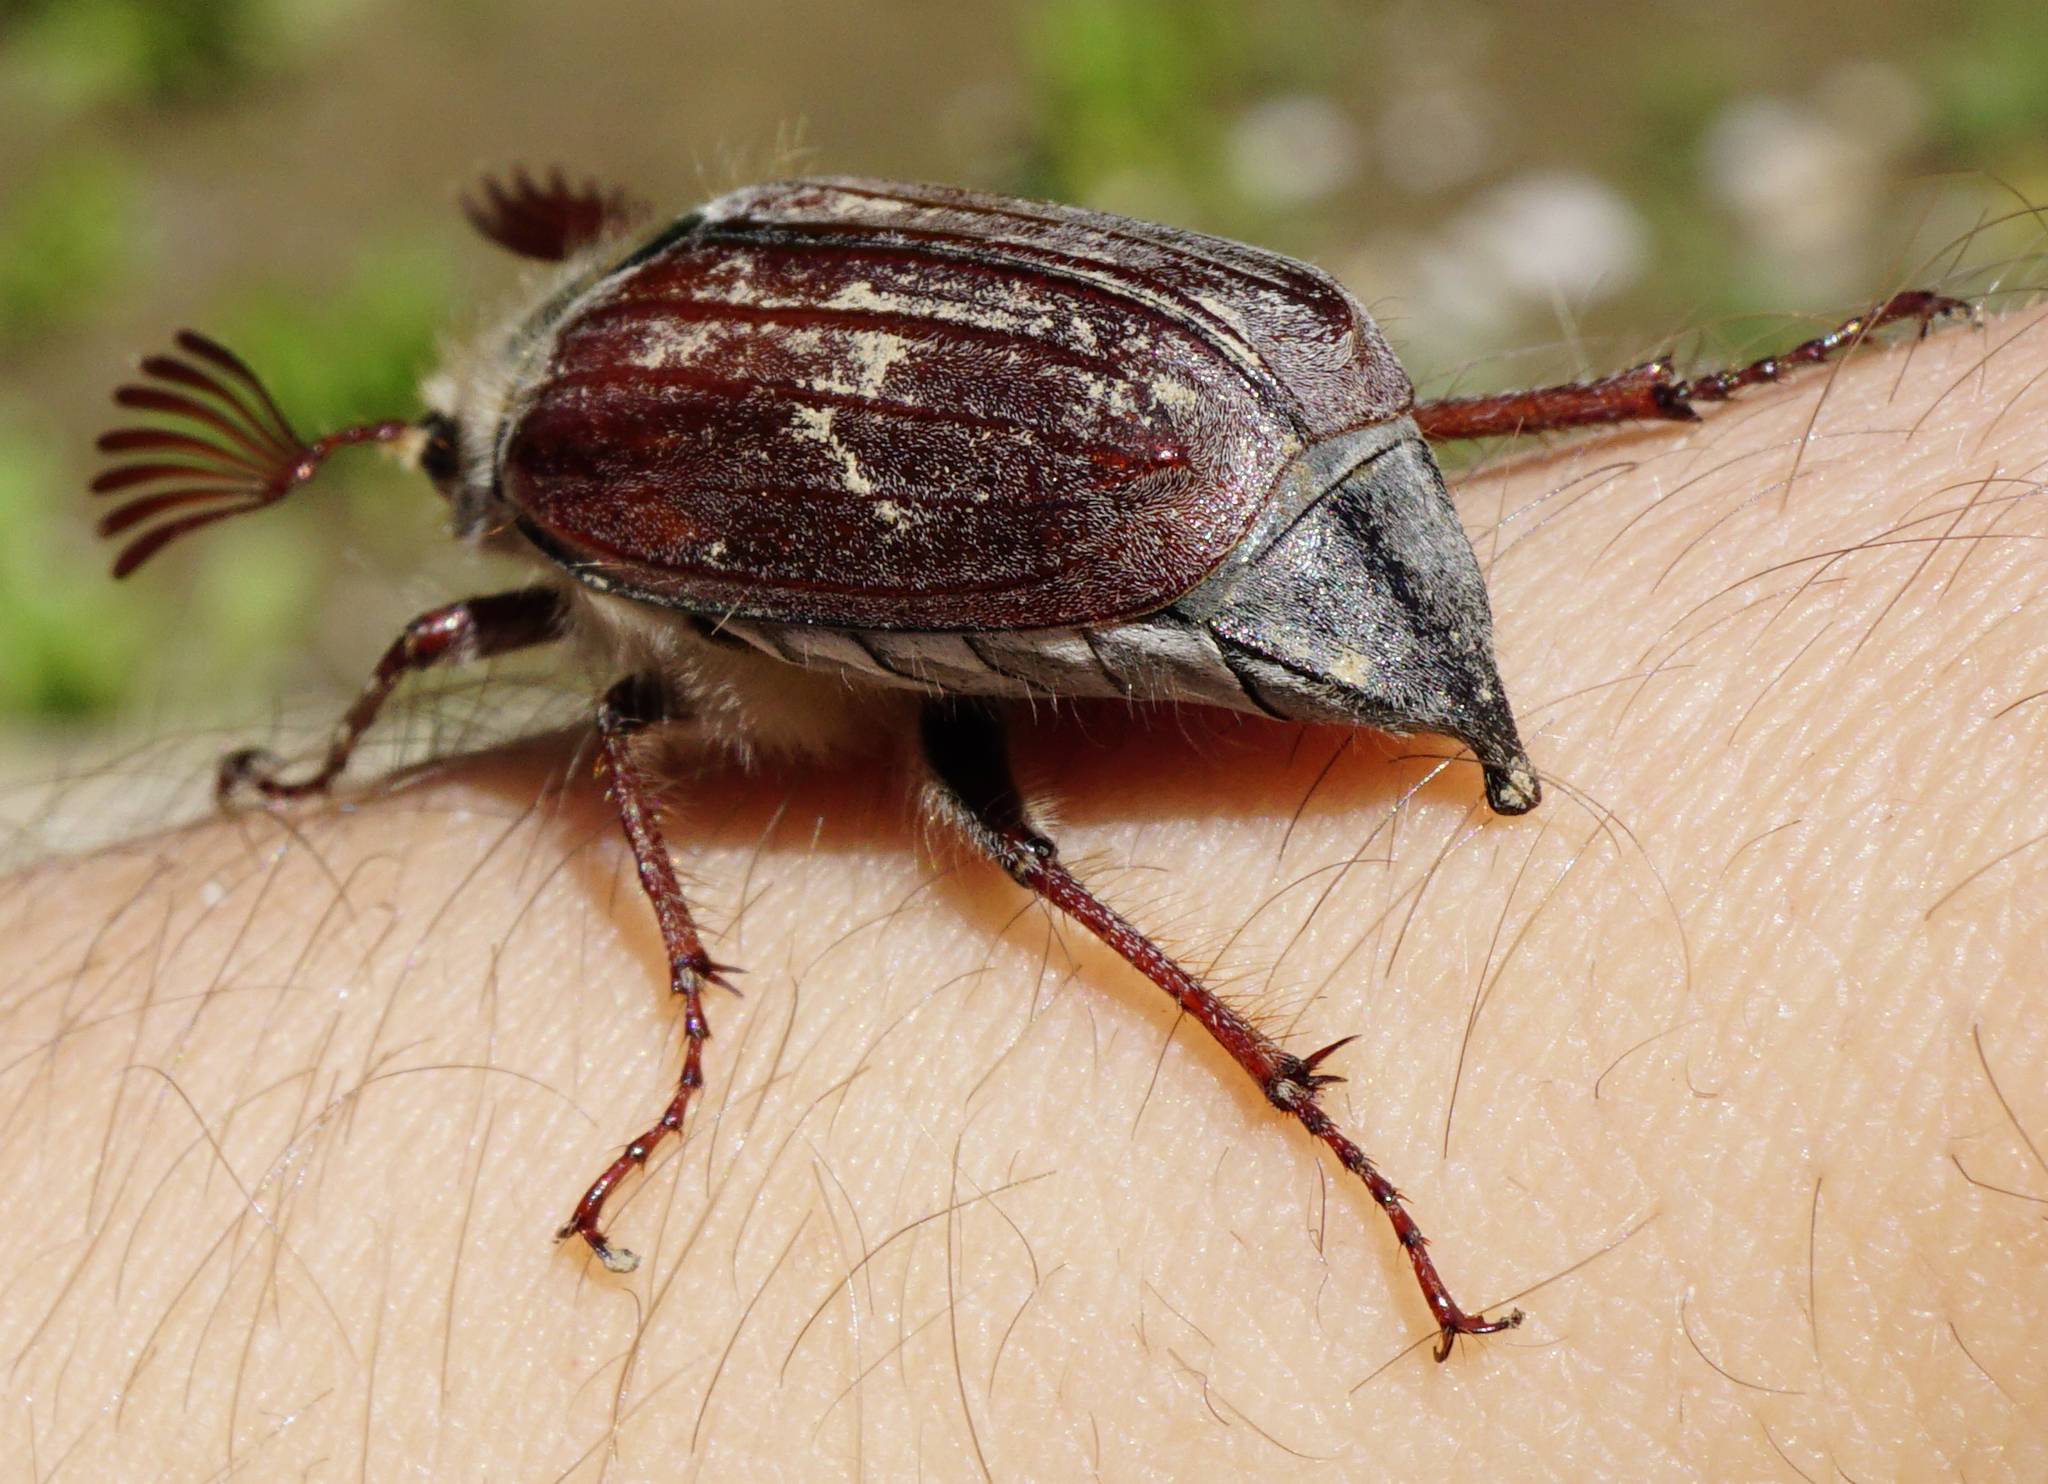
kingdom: Animalia
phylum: Arthropoda
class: Insecta
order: Coleoptera
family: Scarabaeidae
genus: Melolontha
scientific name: Melolontha hippocastani
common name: Chestnut cockchafer
